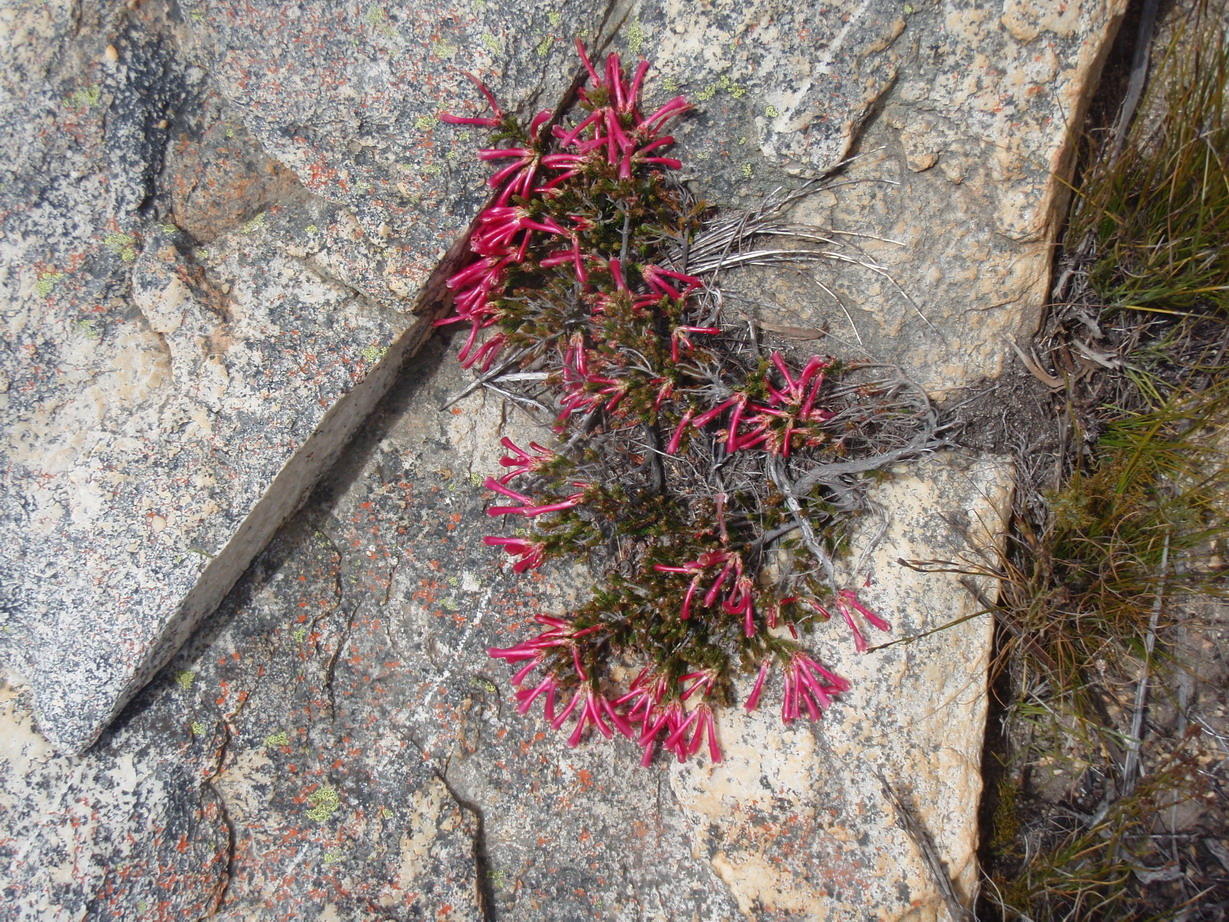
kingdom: Plantae
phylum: Tracheophyta
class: Magnoliopsida
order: Ericales
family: Ericaceae
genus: Erica
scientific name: Erica discolor
